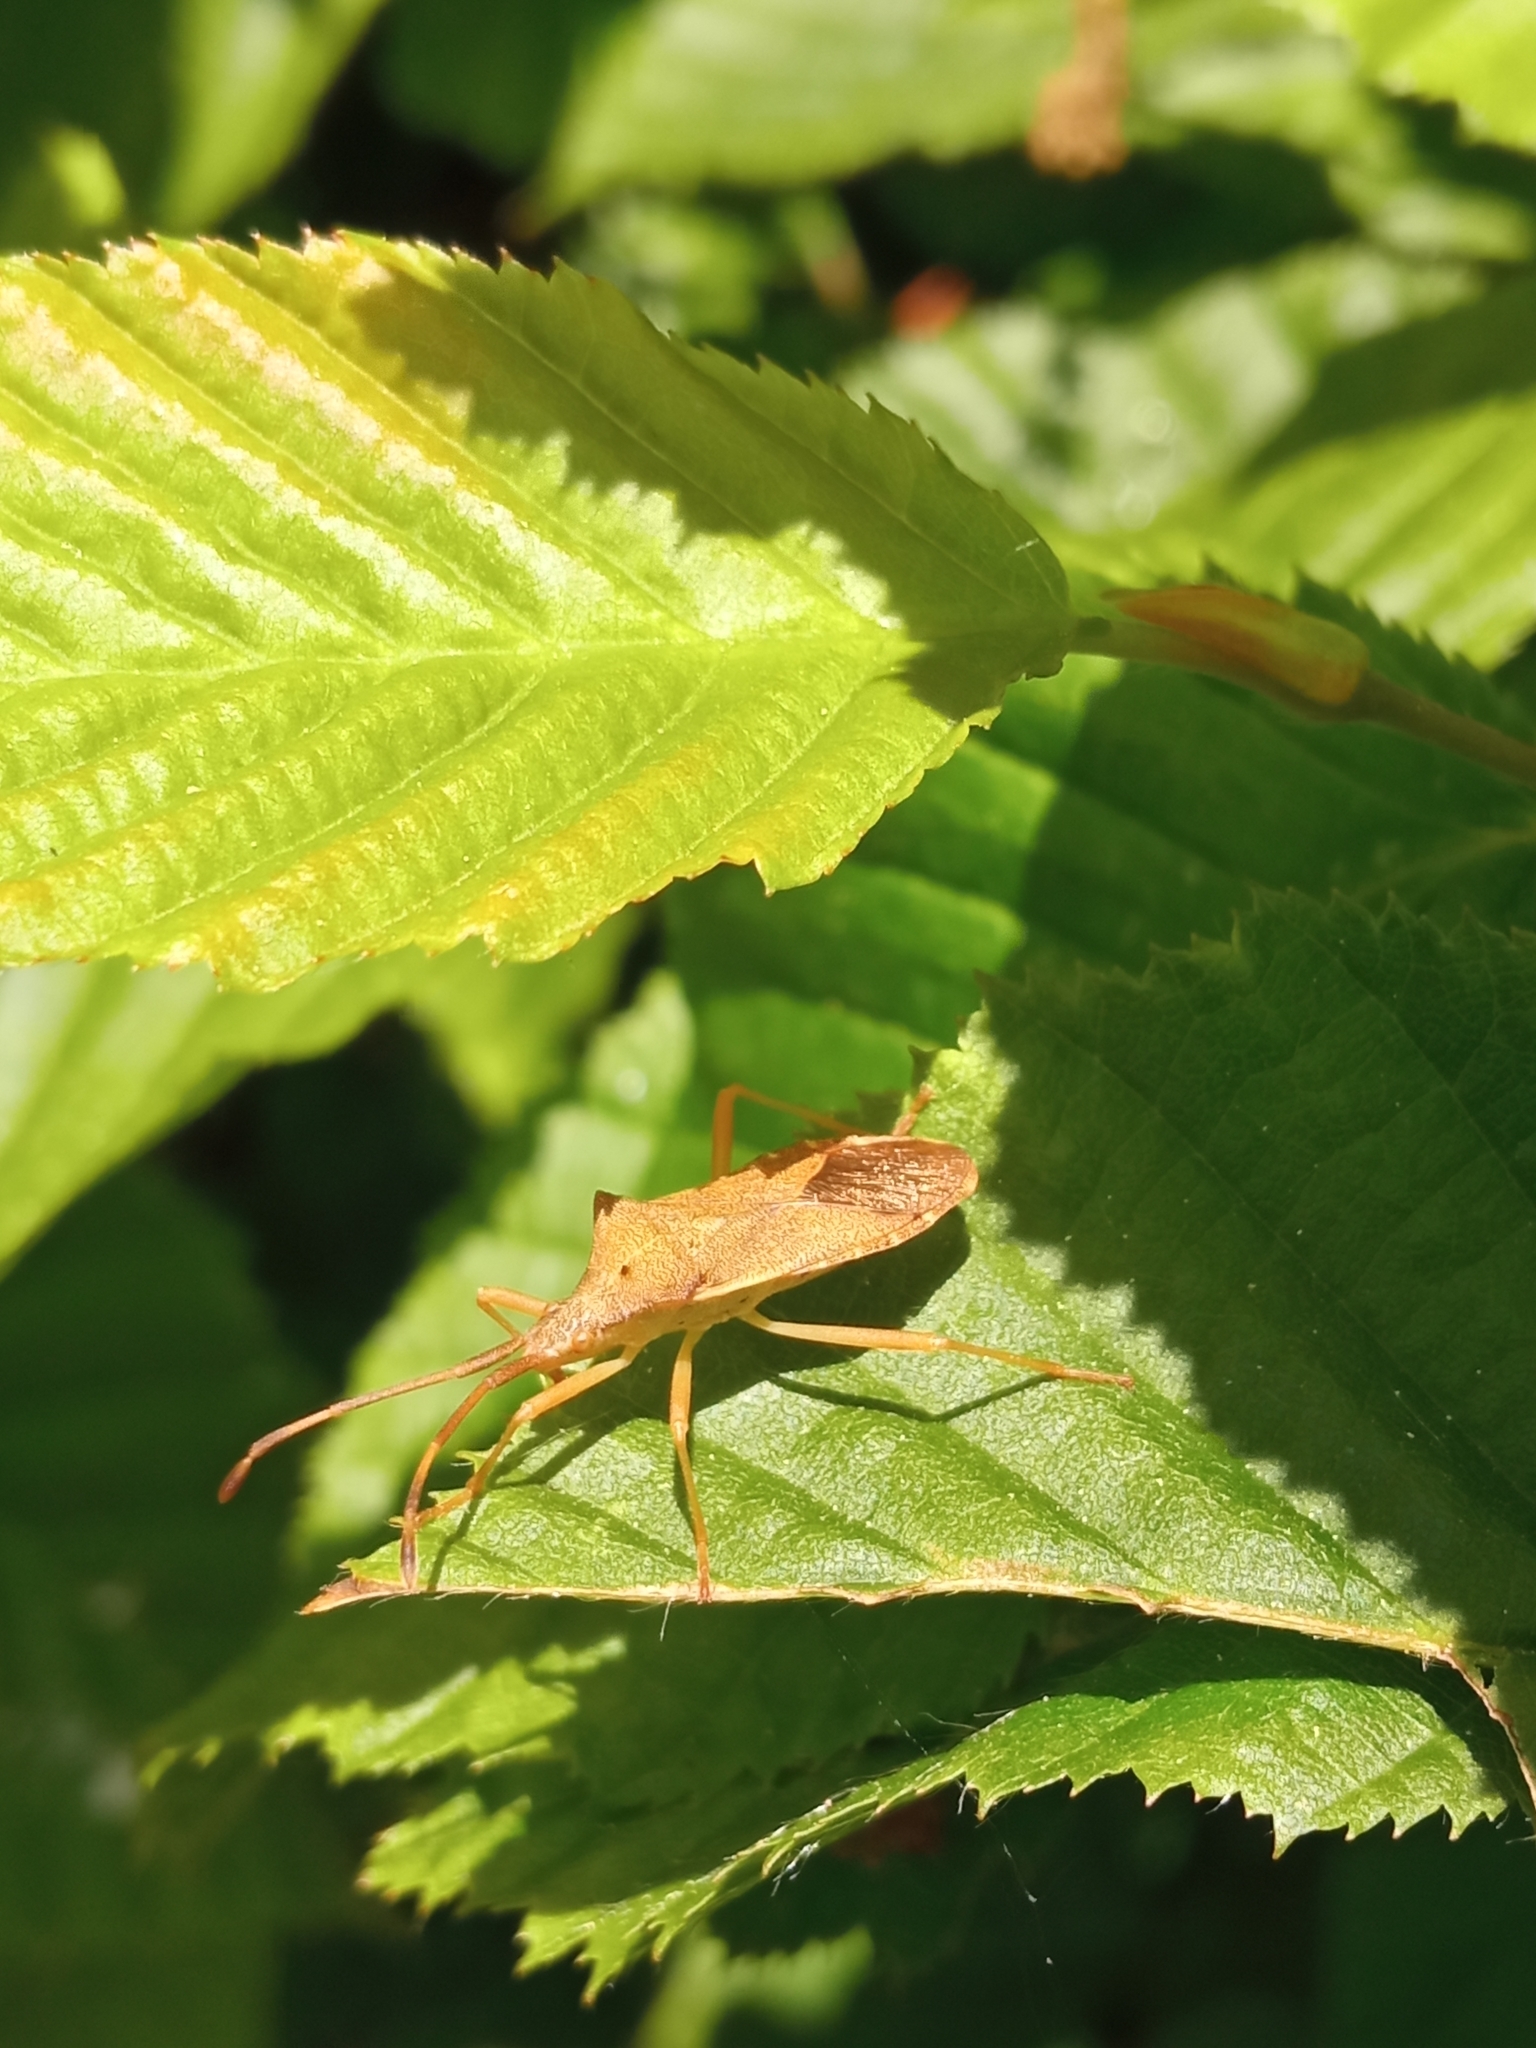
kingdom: Animalia
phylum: Arthropoda
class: Insecta
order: Hemiptera
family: Coreidae
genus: Gonocerus
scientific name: Gonocerus acuteangulatus
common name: Box bug
